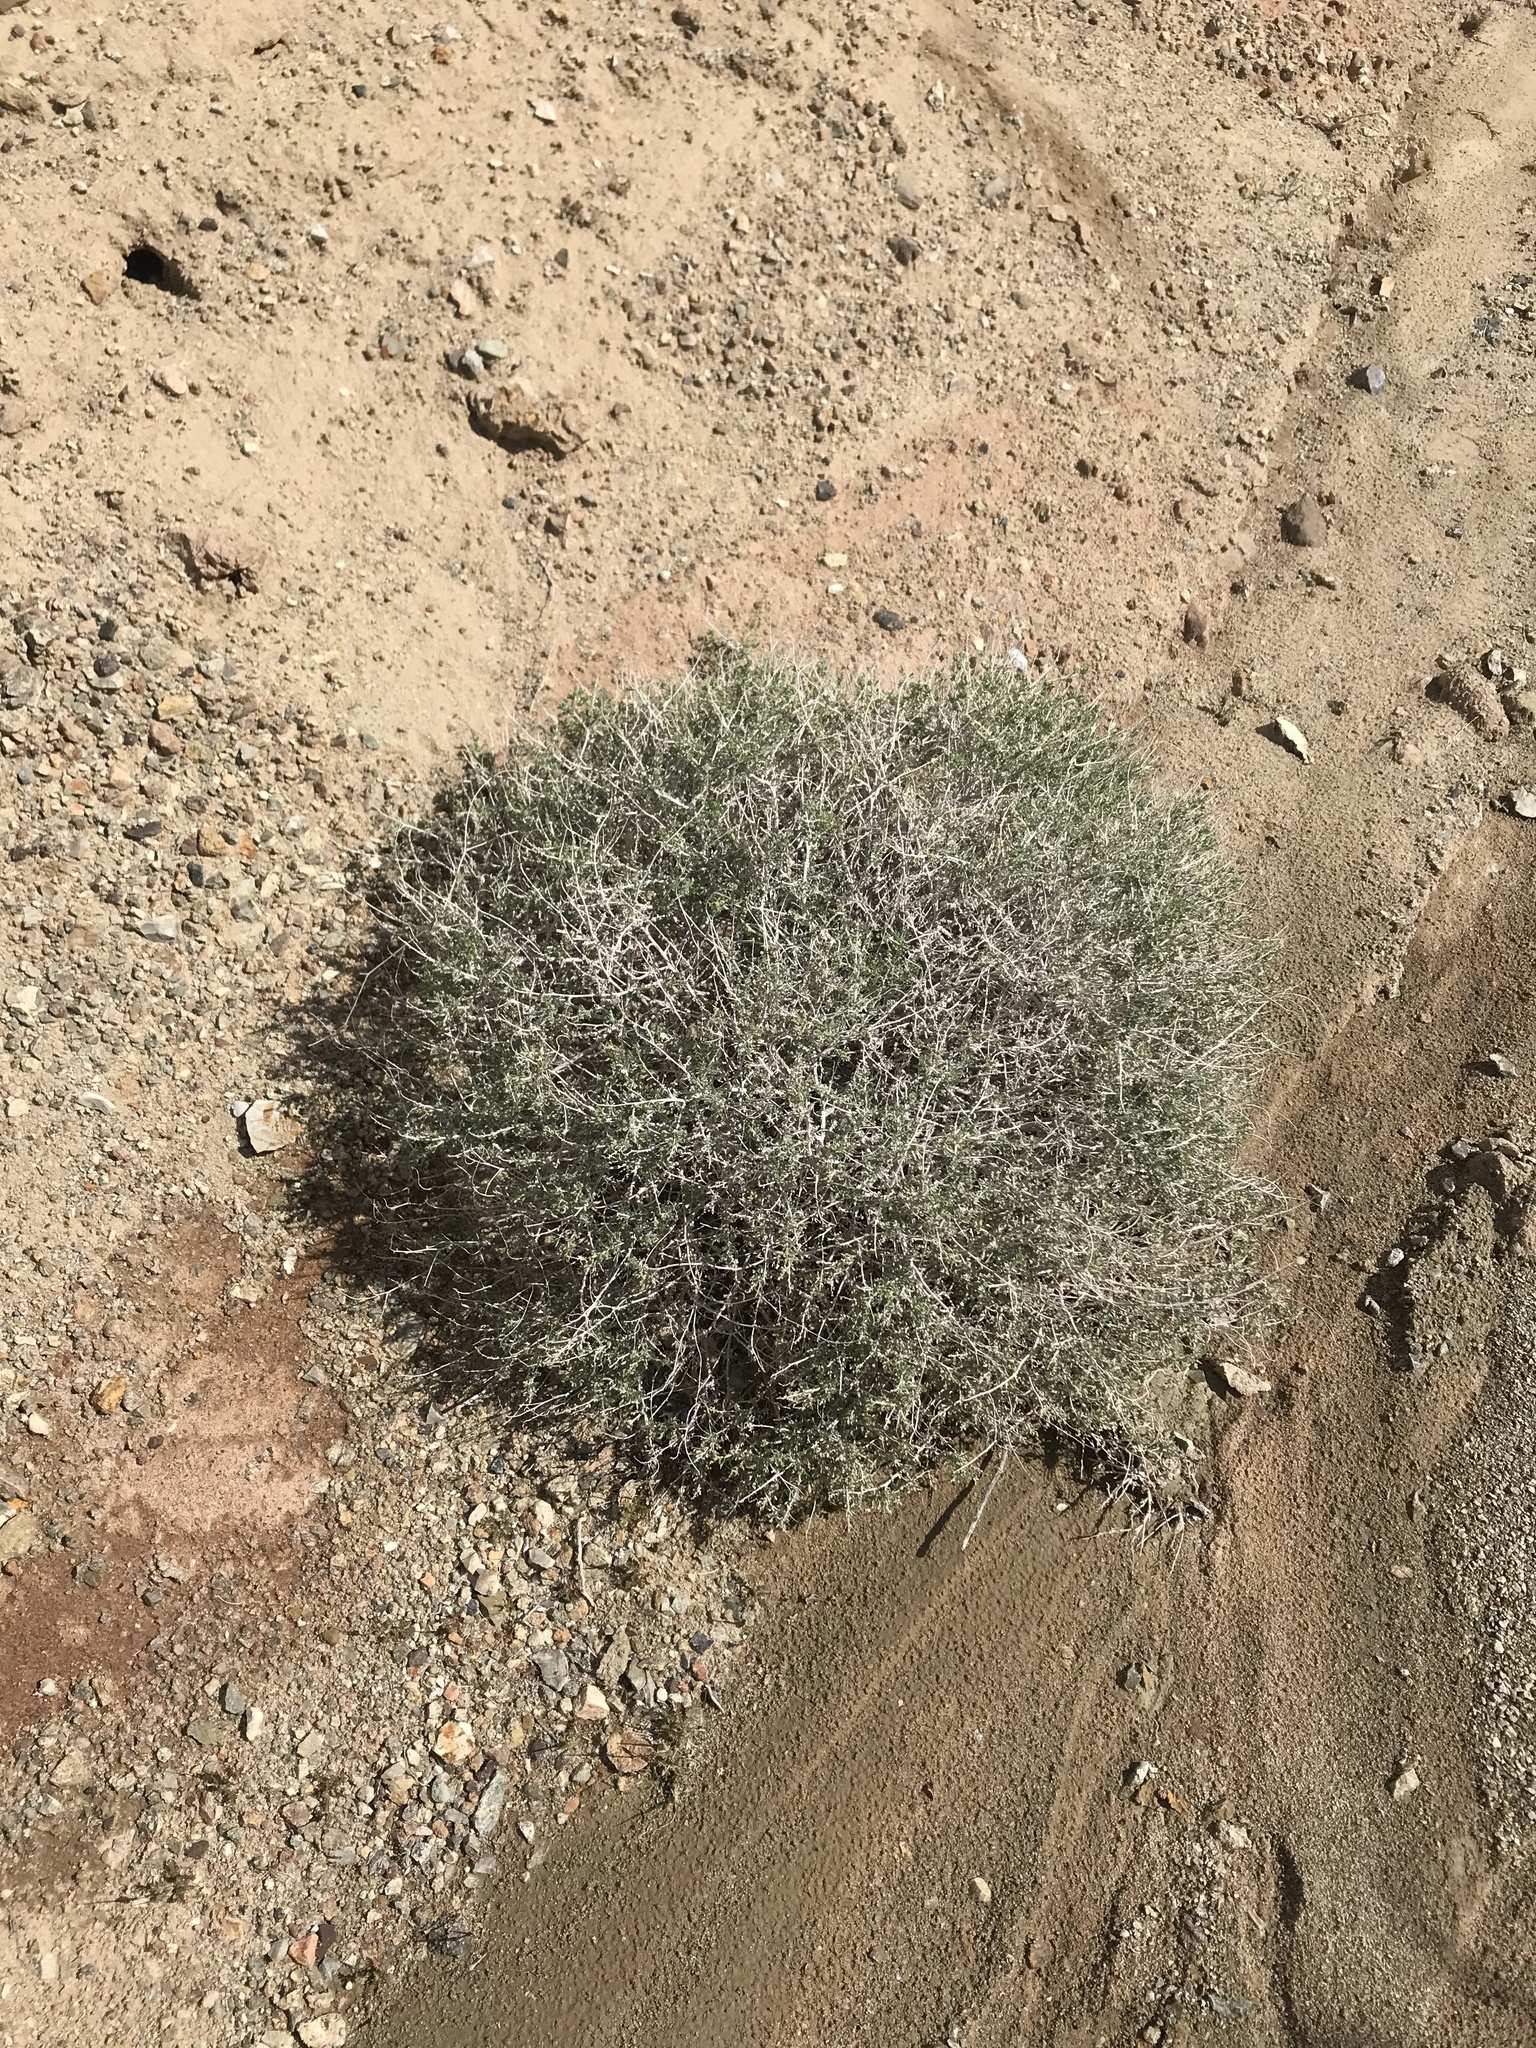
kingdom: Plantae
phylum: Tracheophyta
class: Magnoliopsida
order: Asterales
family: Asteraceae
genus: Ambrosia
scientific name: Ambrosia dumosa
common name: Bur-sage
